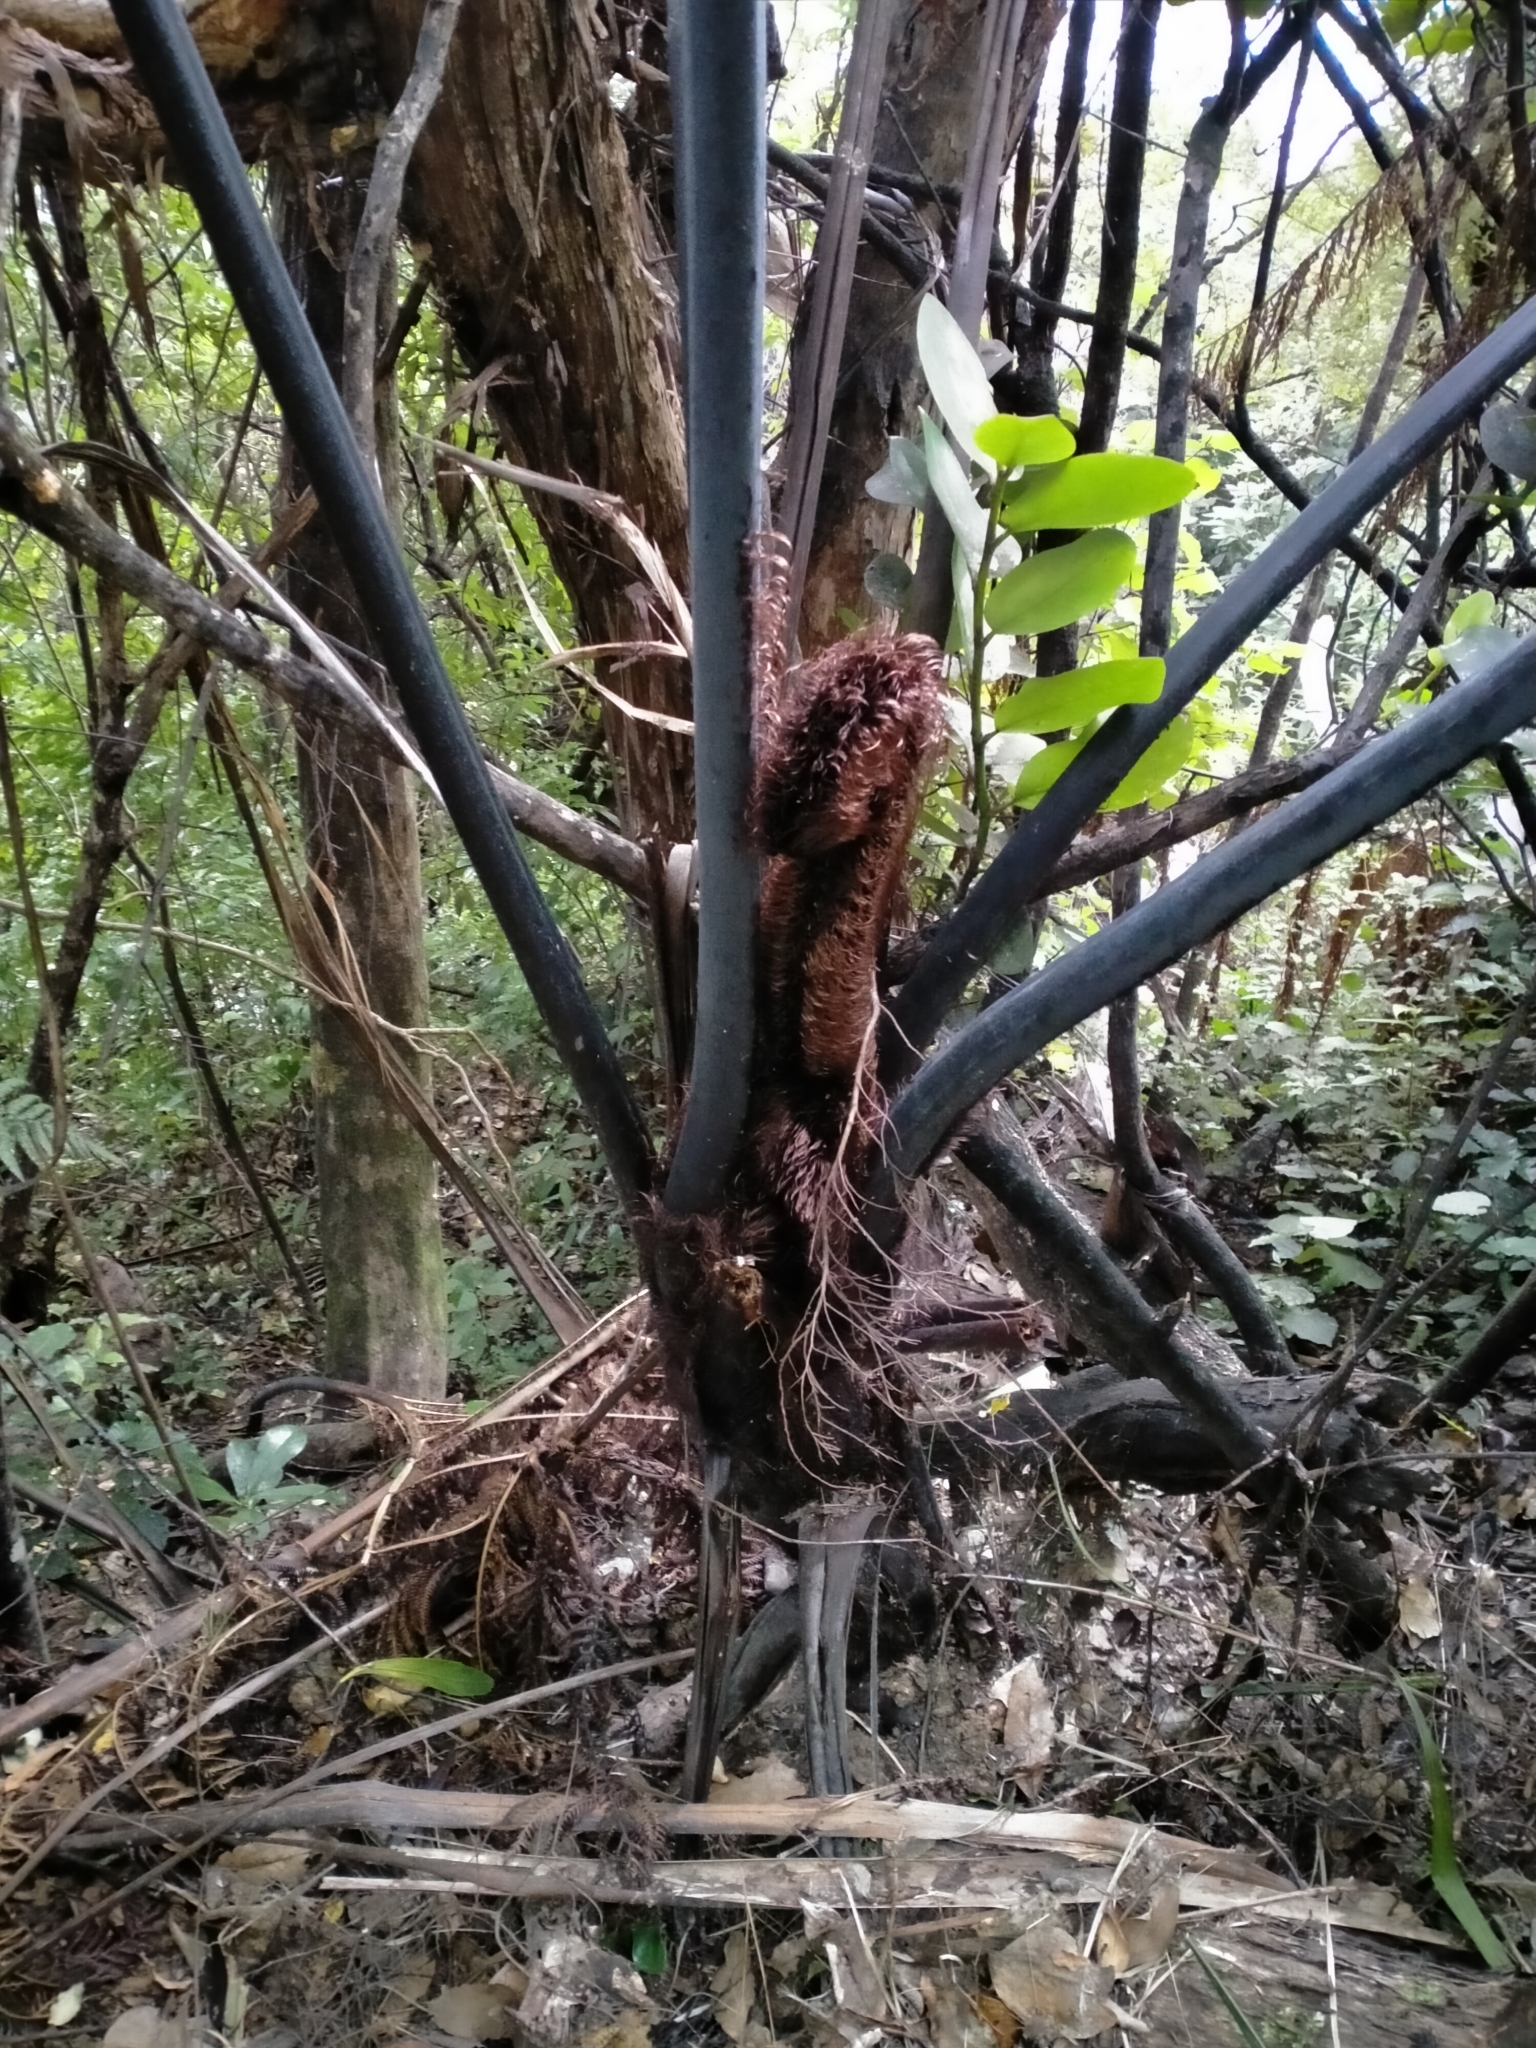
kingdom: Plantae
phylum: Tracheophyta
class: Polypodiopsida
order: Cyatheales
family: Cyatheaceae
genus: Sphaeropteris
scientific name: Sphaeropteris medullaris
